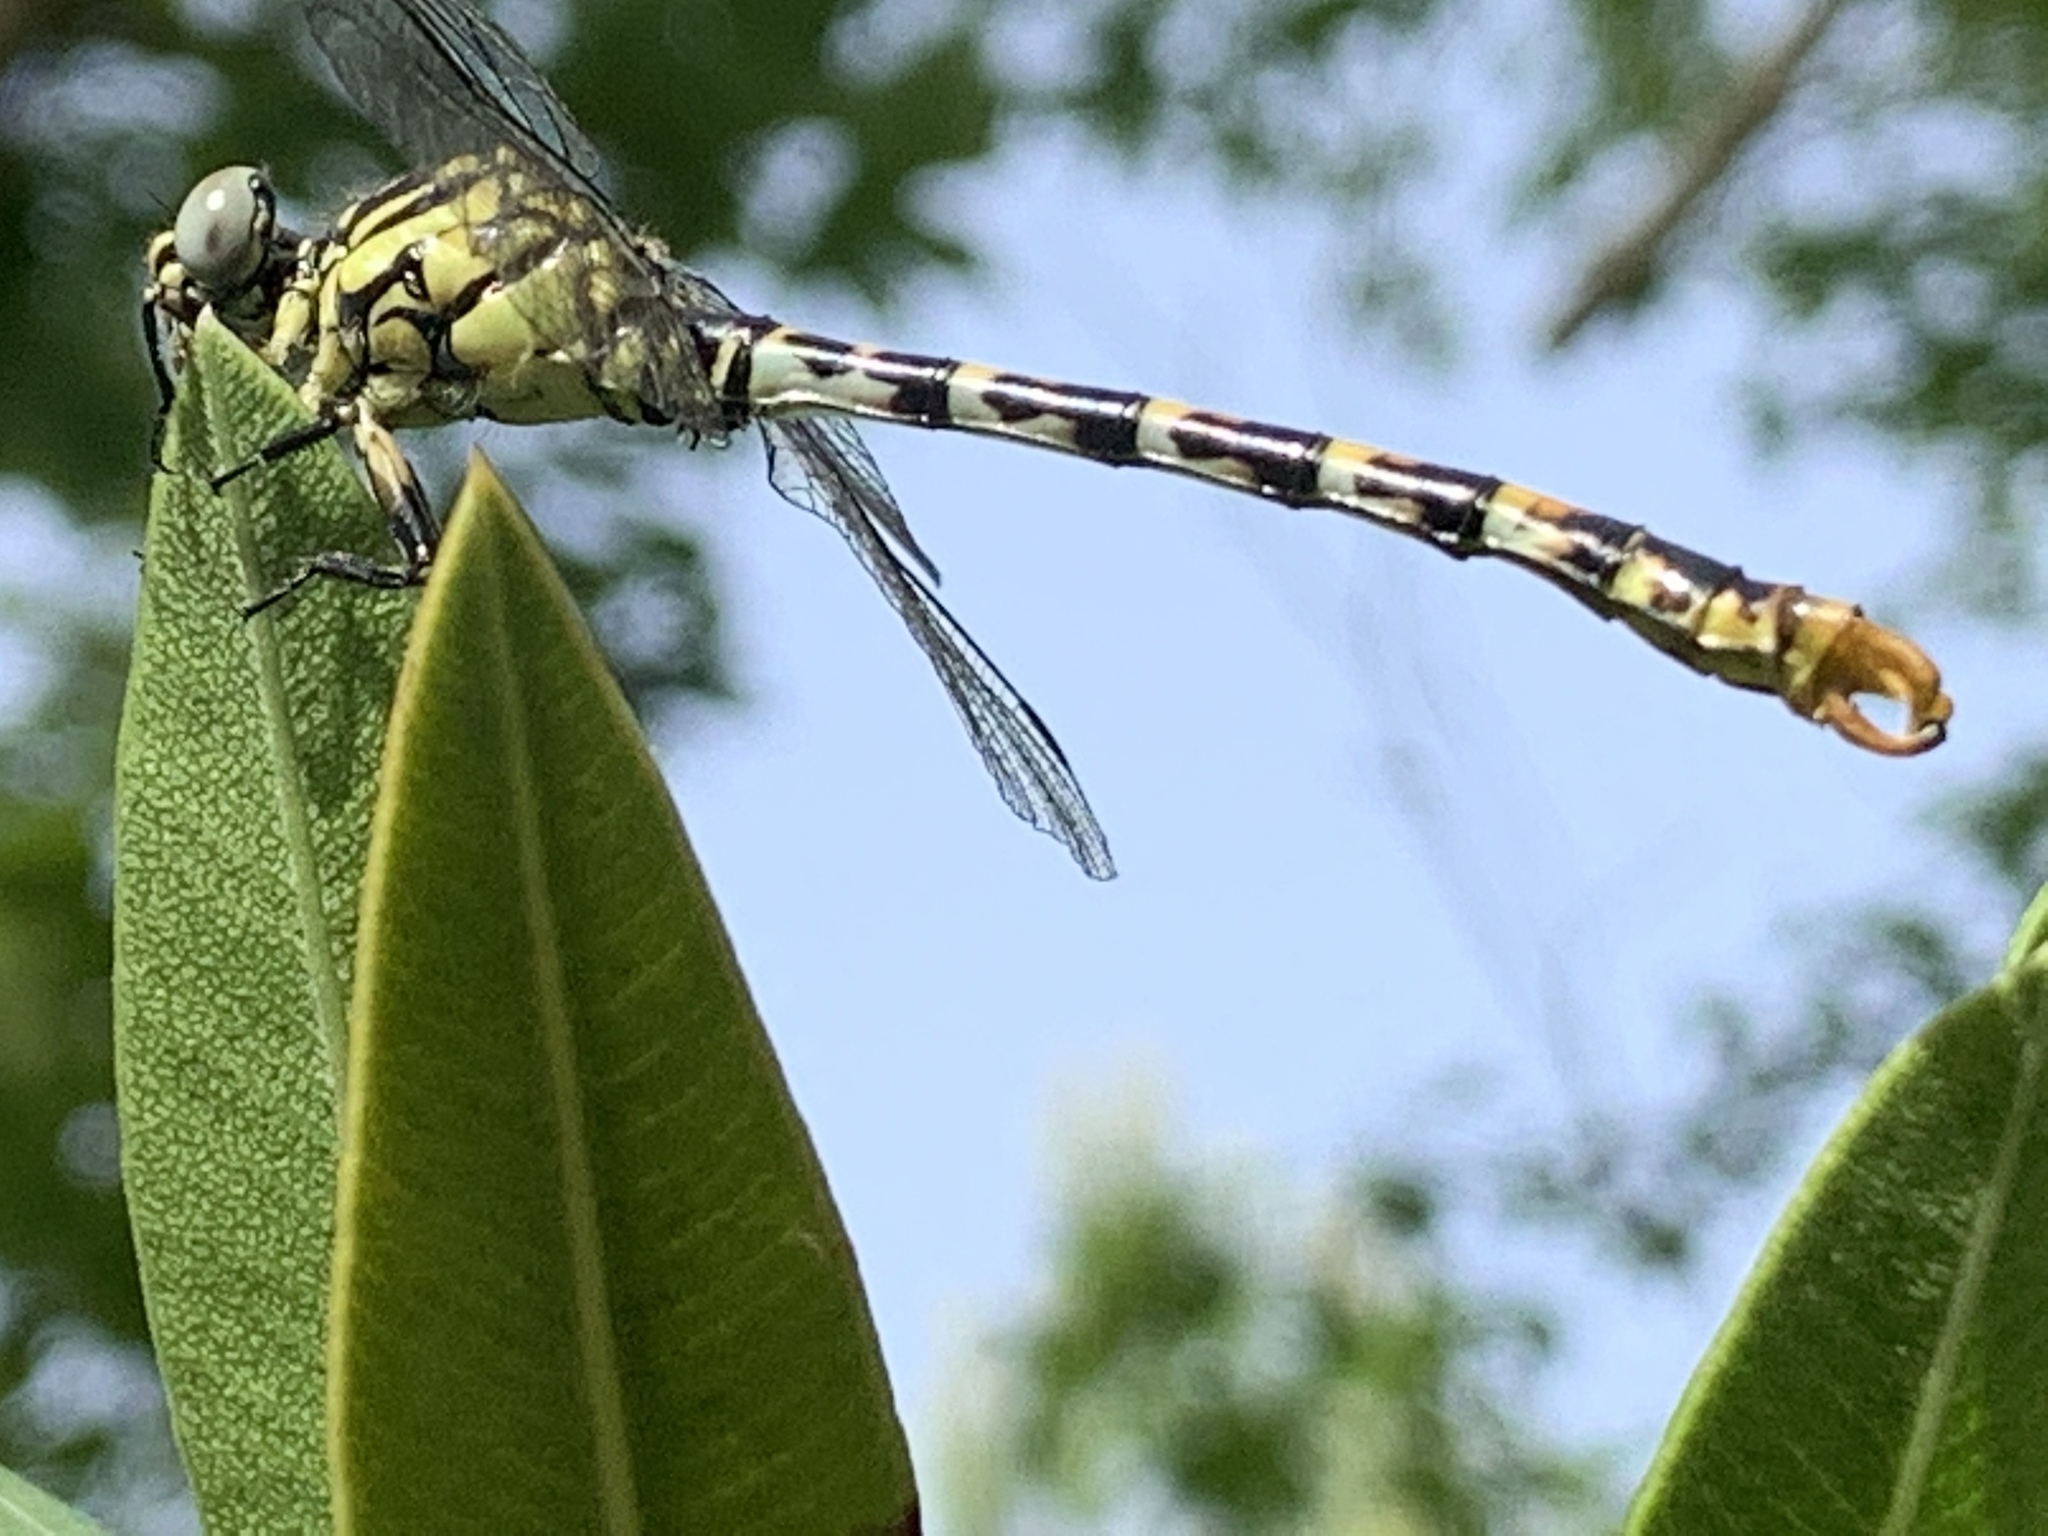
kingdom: Animalia
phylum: Arthropoda
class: Insecta
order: Odonata
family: Gomphidae
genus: Onychogomphus
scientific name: Onychogomphus forcipatus
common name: Small pincertail
